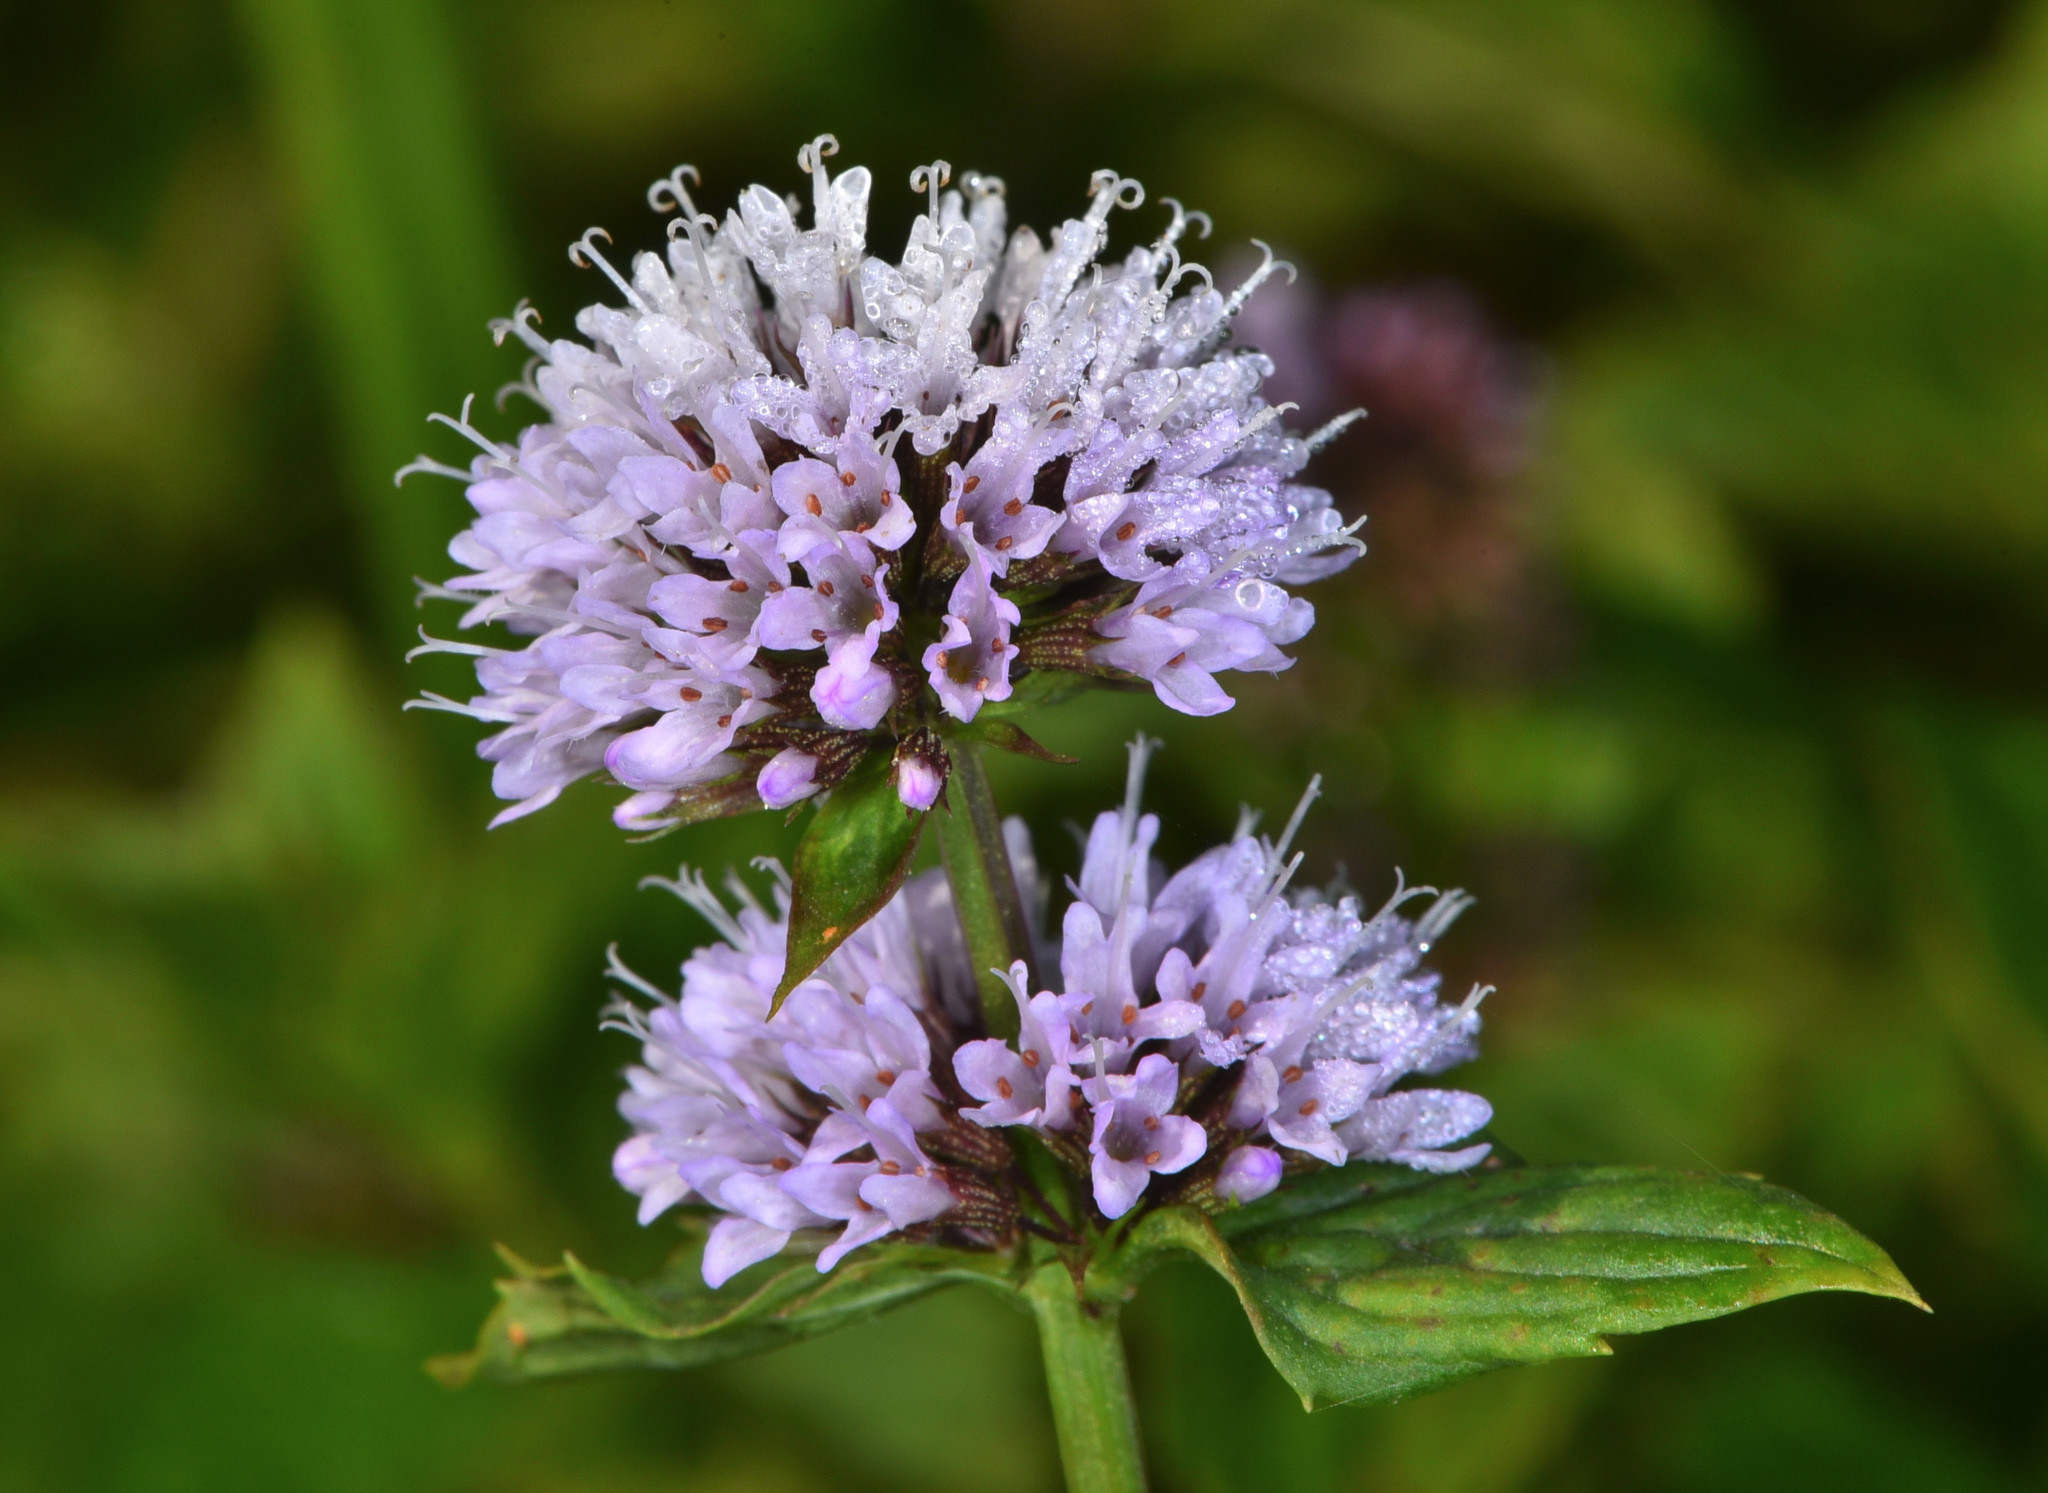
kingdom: Plantae
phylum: Tracheophyta
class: Magnoliopsida
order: Lamiales
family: Lamiaceae
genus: Mentha
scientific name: Mentha aquatica
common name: Water mint
